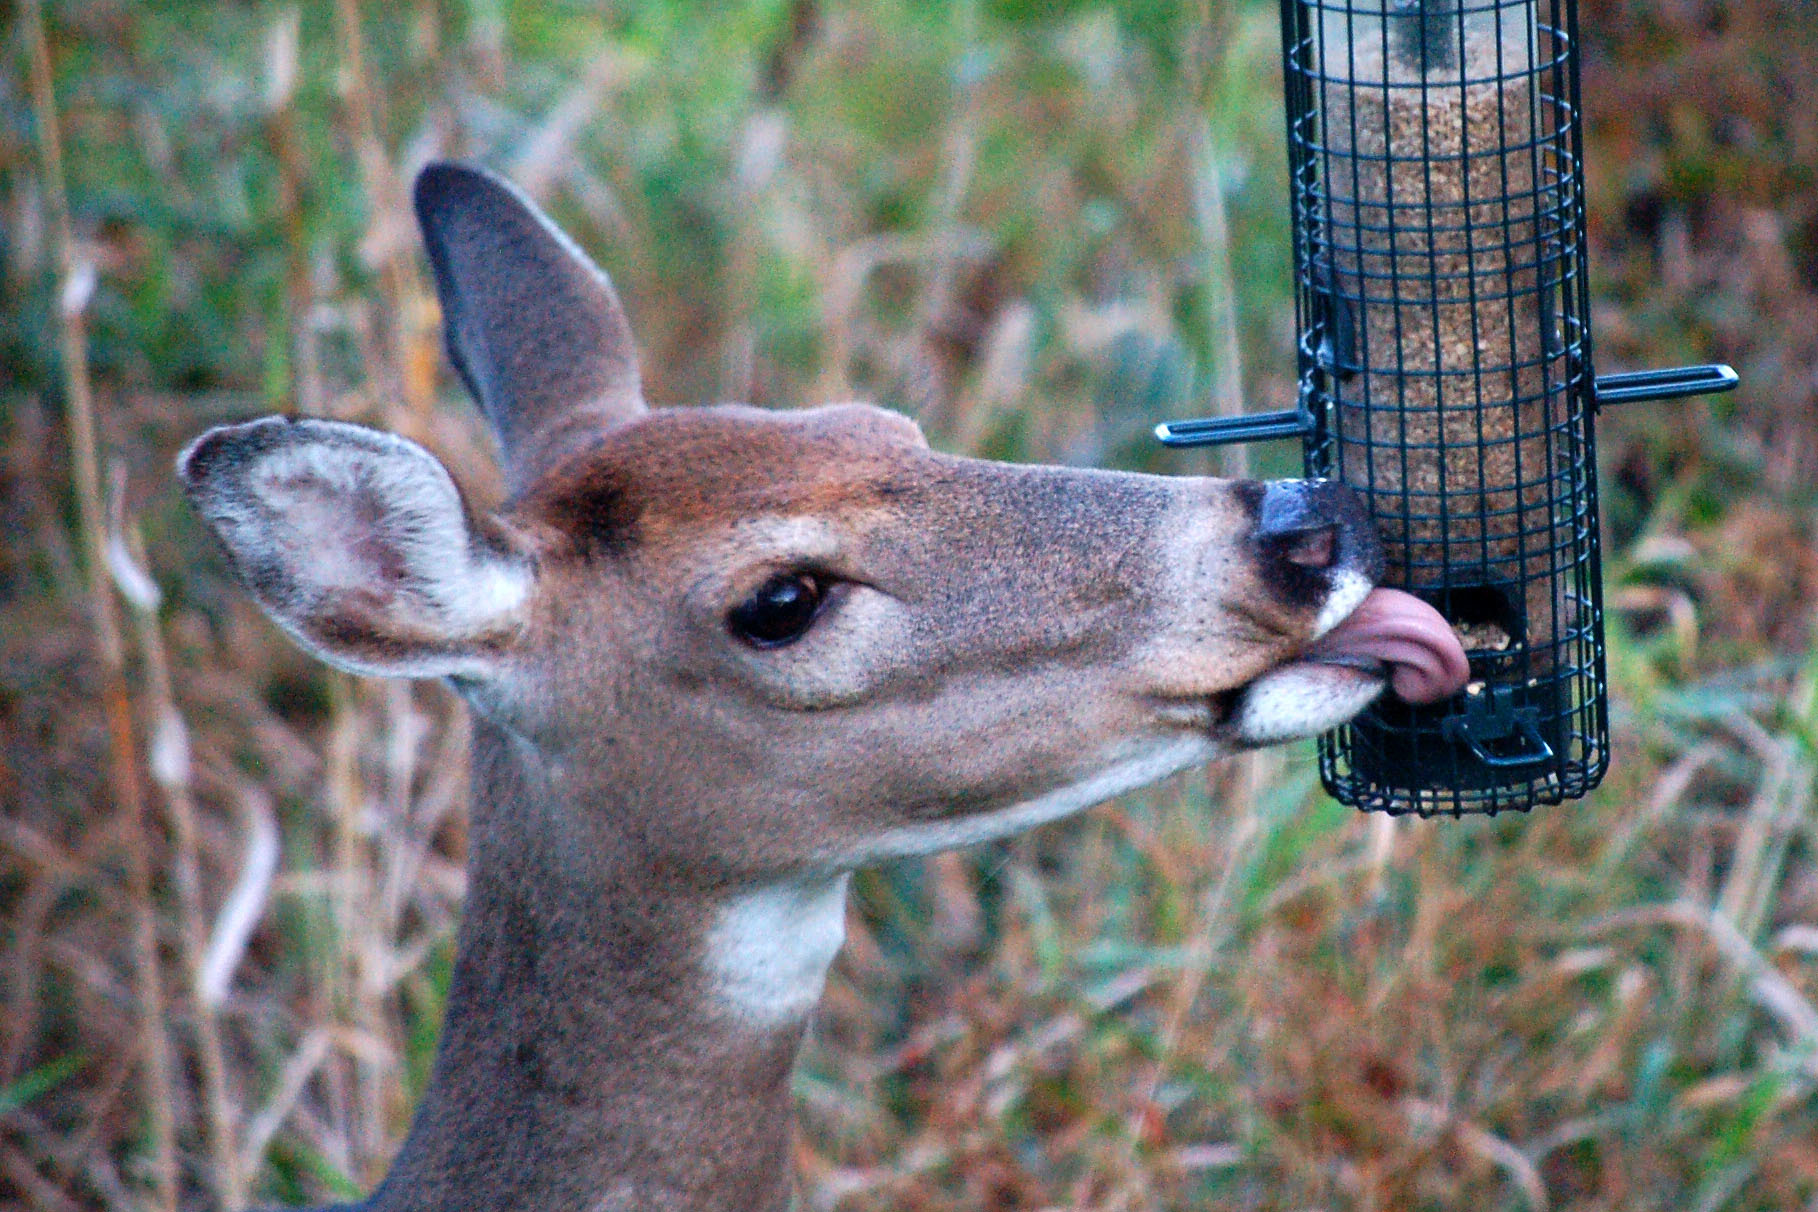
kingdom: Animalia
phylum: Chordata
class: Mammalia
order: Artiodactyla
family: Cervidae
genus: Odocoileus
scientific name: Odocoileus virginianus
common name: White-tailed deer
